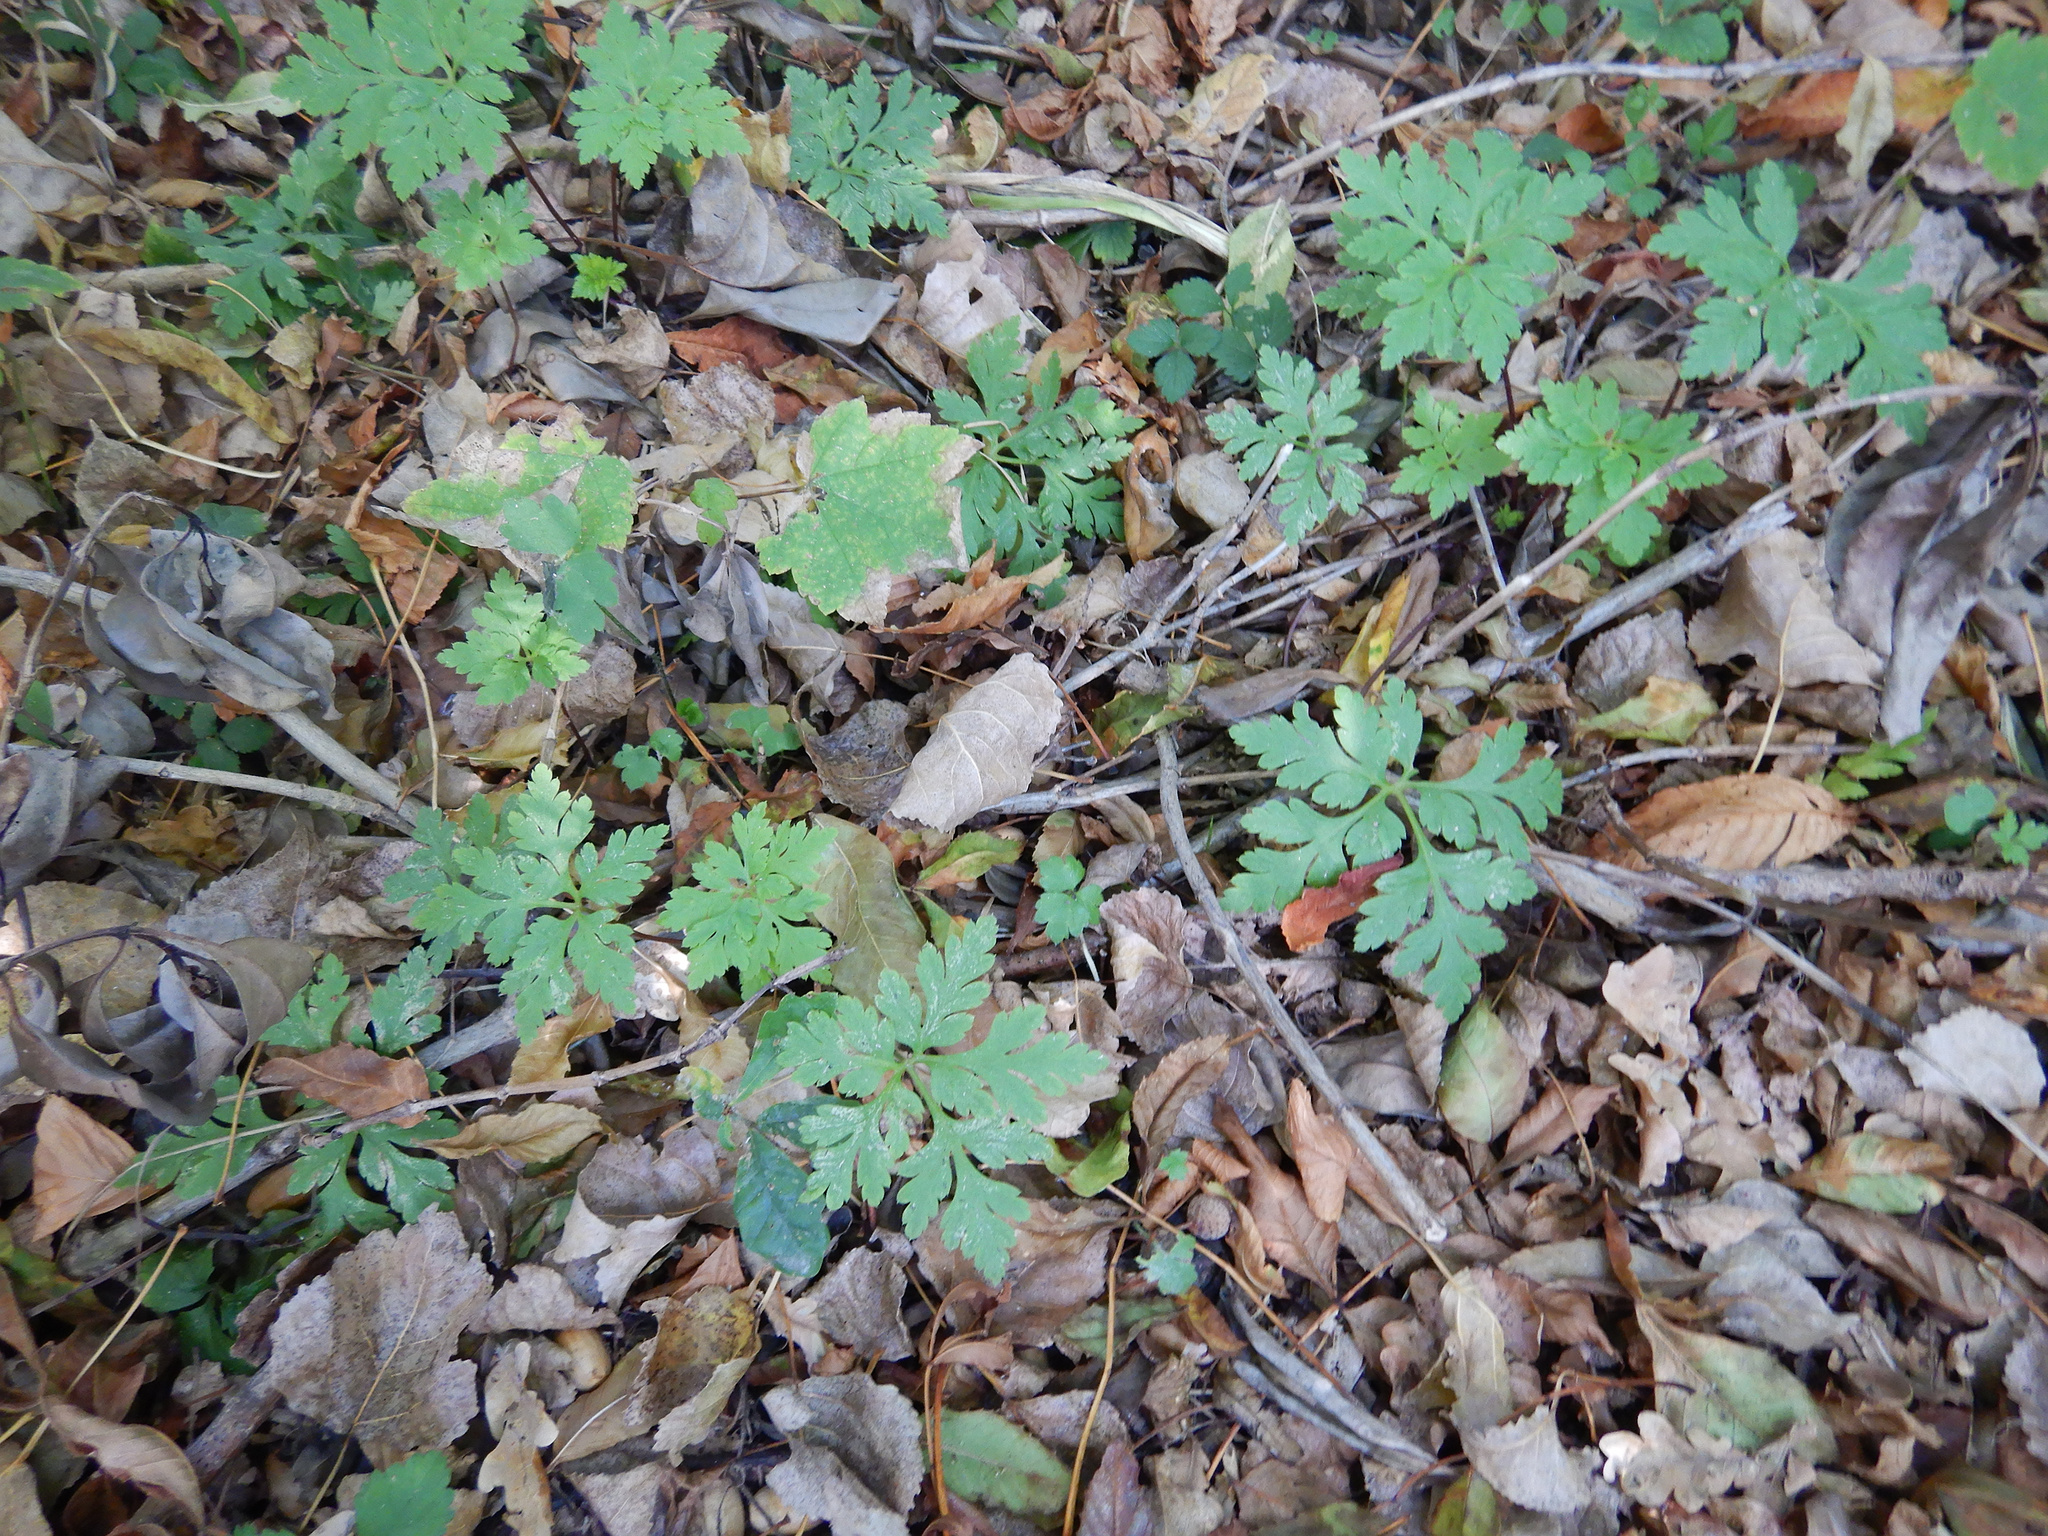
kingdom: Plantae
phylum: Tracheophyta
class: Magnoliopsida
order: Geraniales
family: Geraniaceae
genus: Geranium
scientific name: Geranium robertianum
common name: Herb-robert
